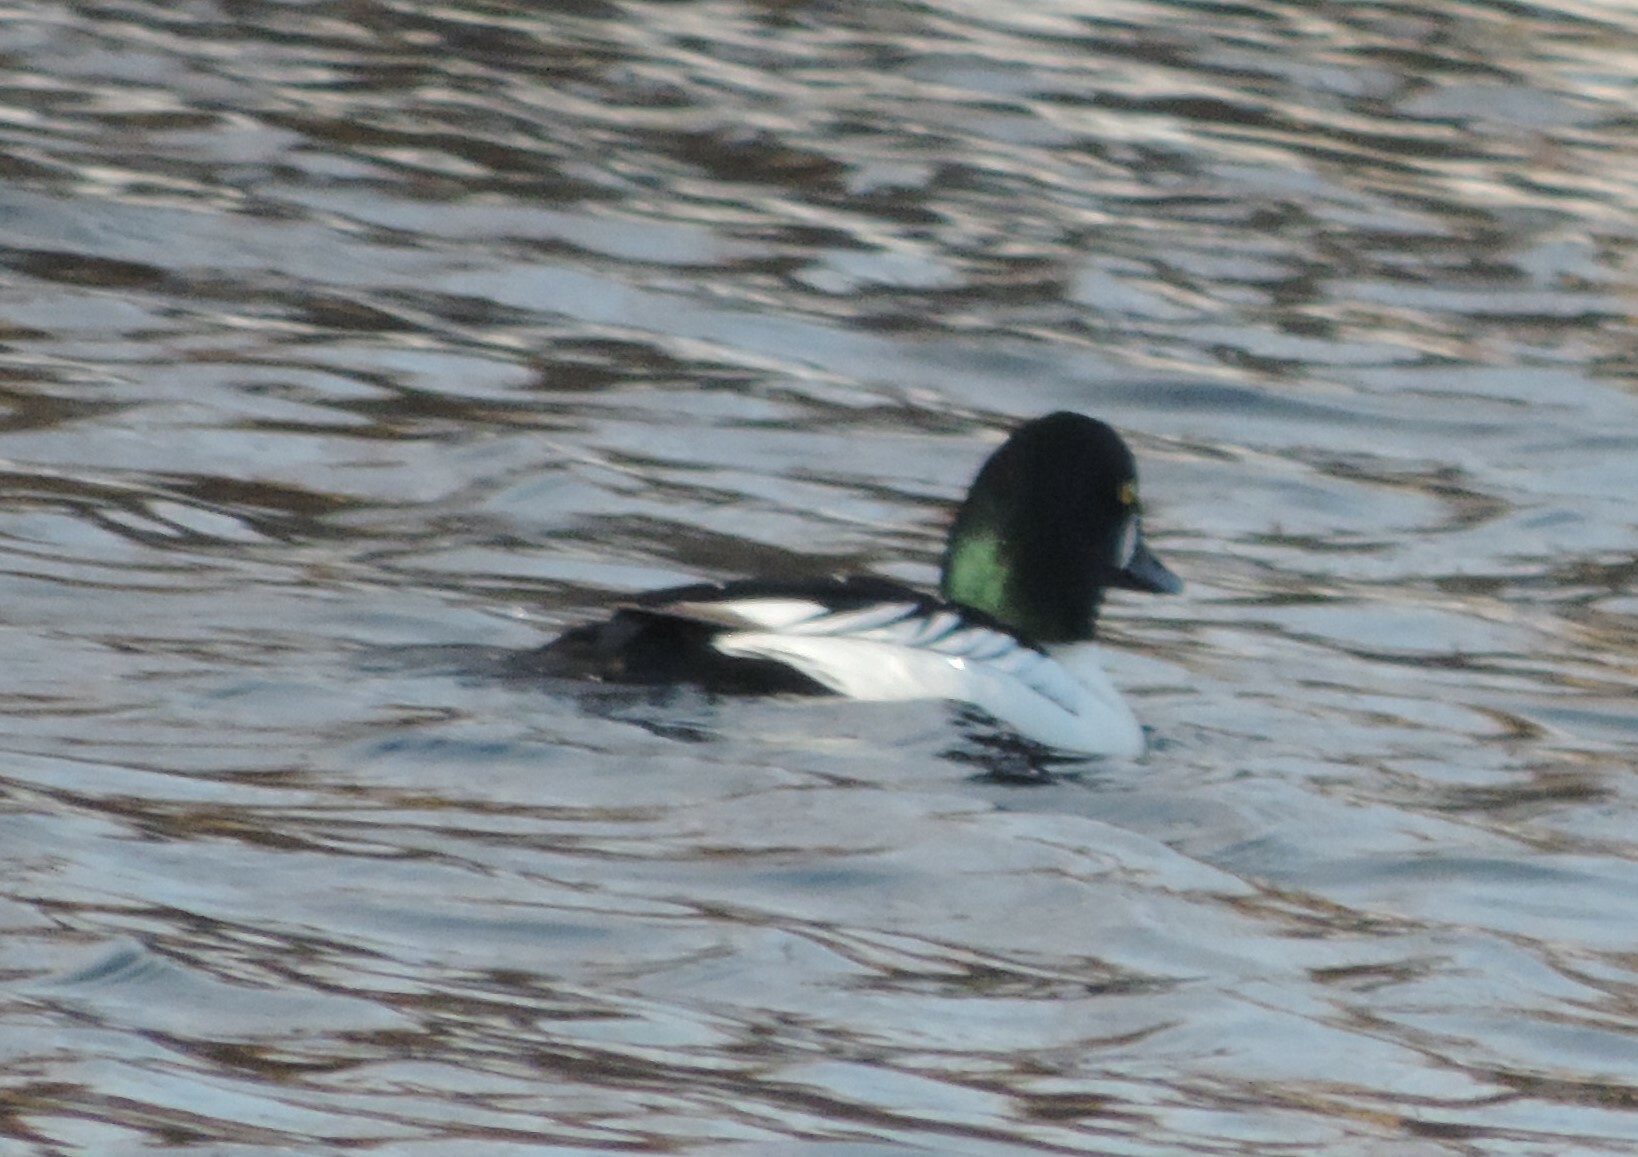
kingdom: Animalia
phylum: Chordata
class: Aves
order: Anseriformes
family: Anatidae
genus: Bucephala
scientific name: Bucephala clangula
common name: Common goldeneye
